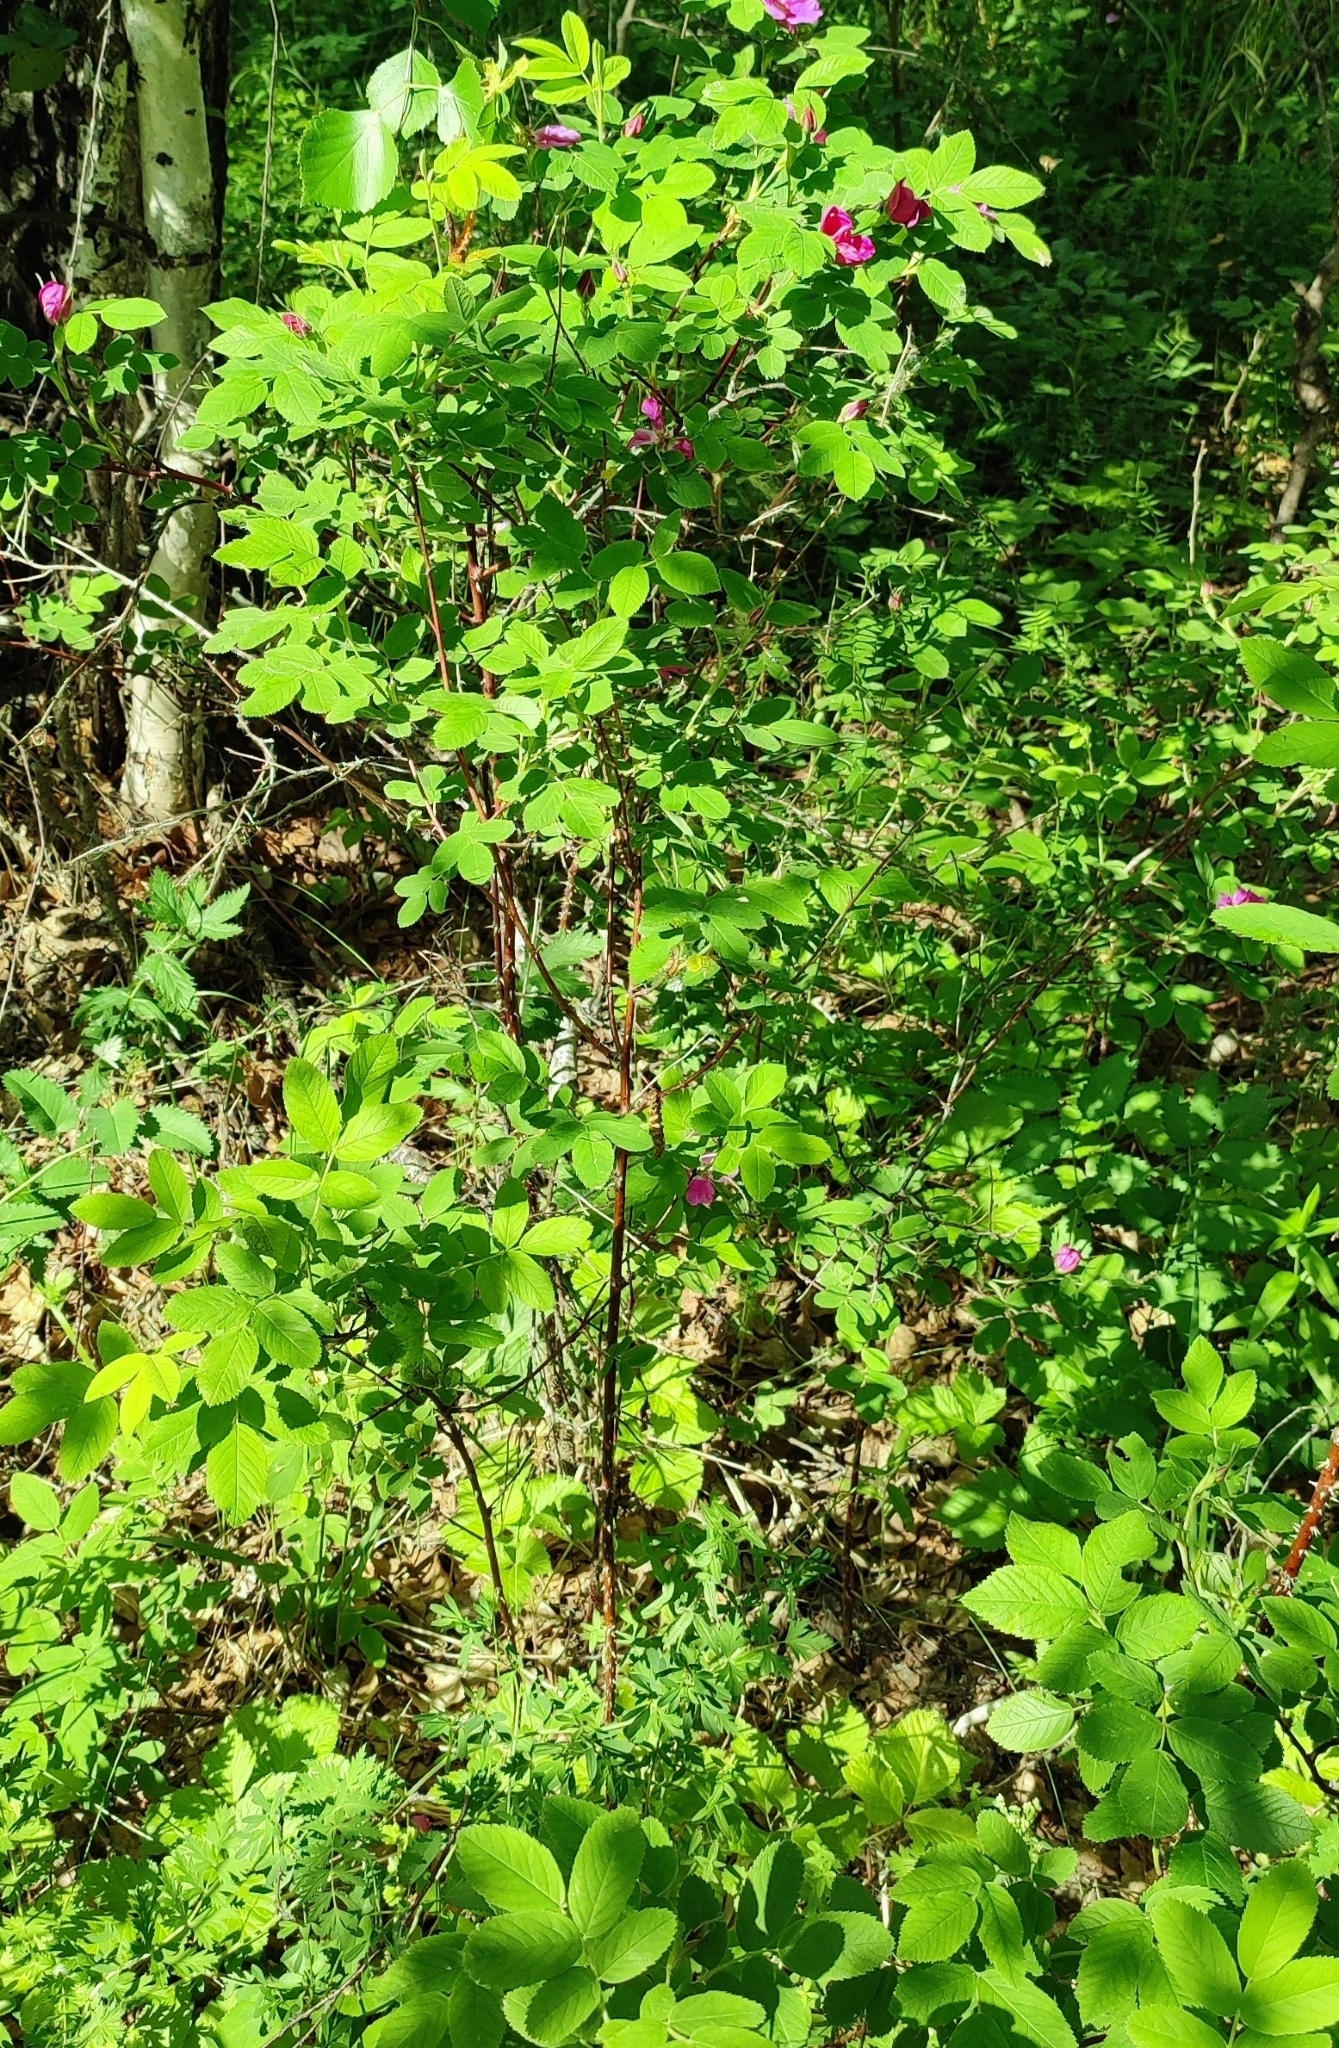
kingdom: Plantae
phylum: Tracheophyta
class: Magnoliopsida
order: Rosales
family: Rosaceae
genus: Rosa
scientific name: Rosa majalis
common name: Cinnamon rose
